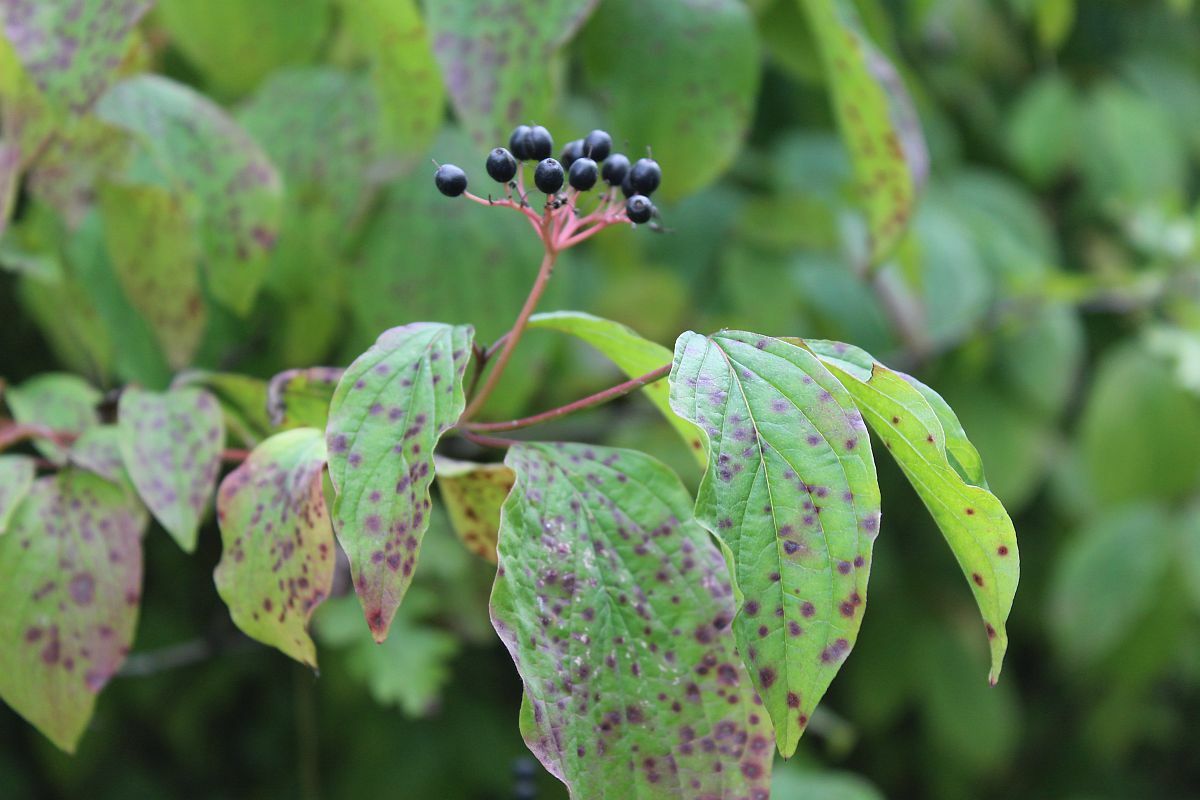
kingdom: Plantae
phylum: Tracheophyta
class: Magnoliopsida
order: Cornales
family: Cornaceae
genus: Cornus
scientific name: Cornus sanguinea
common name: Dogwood
